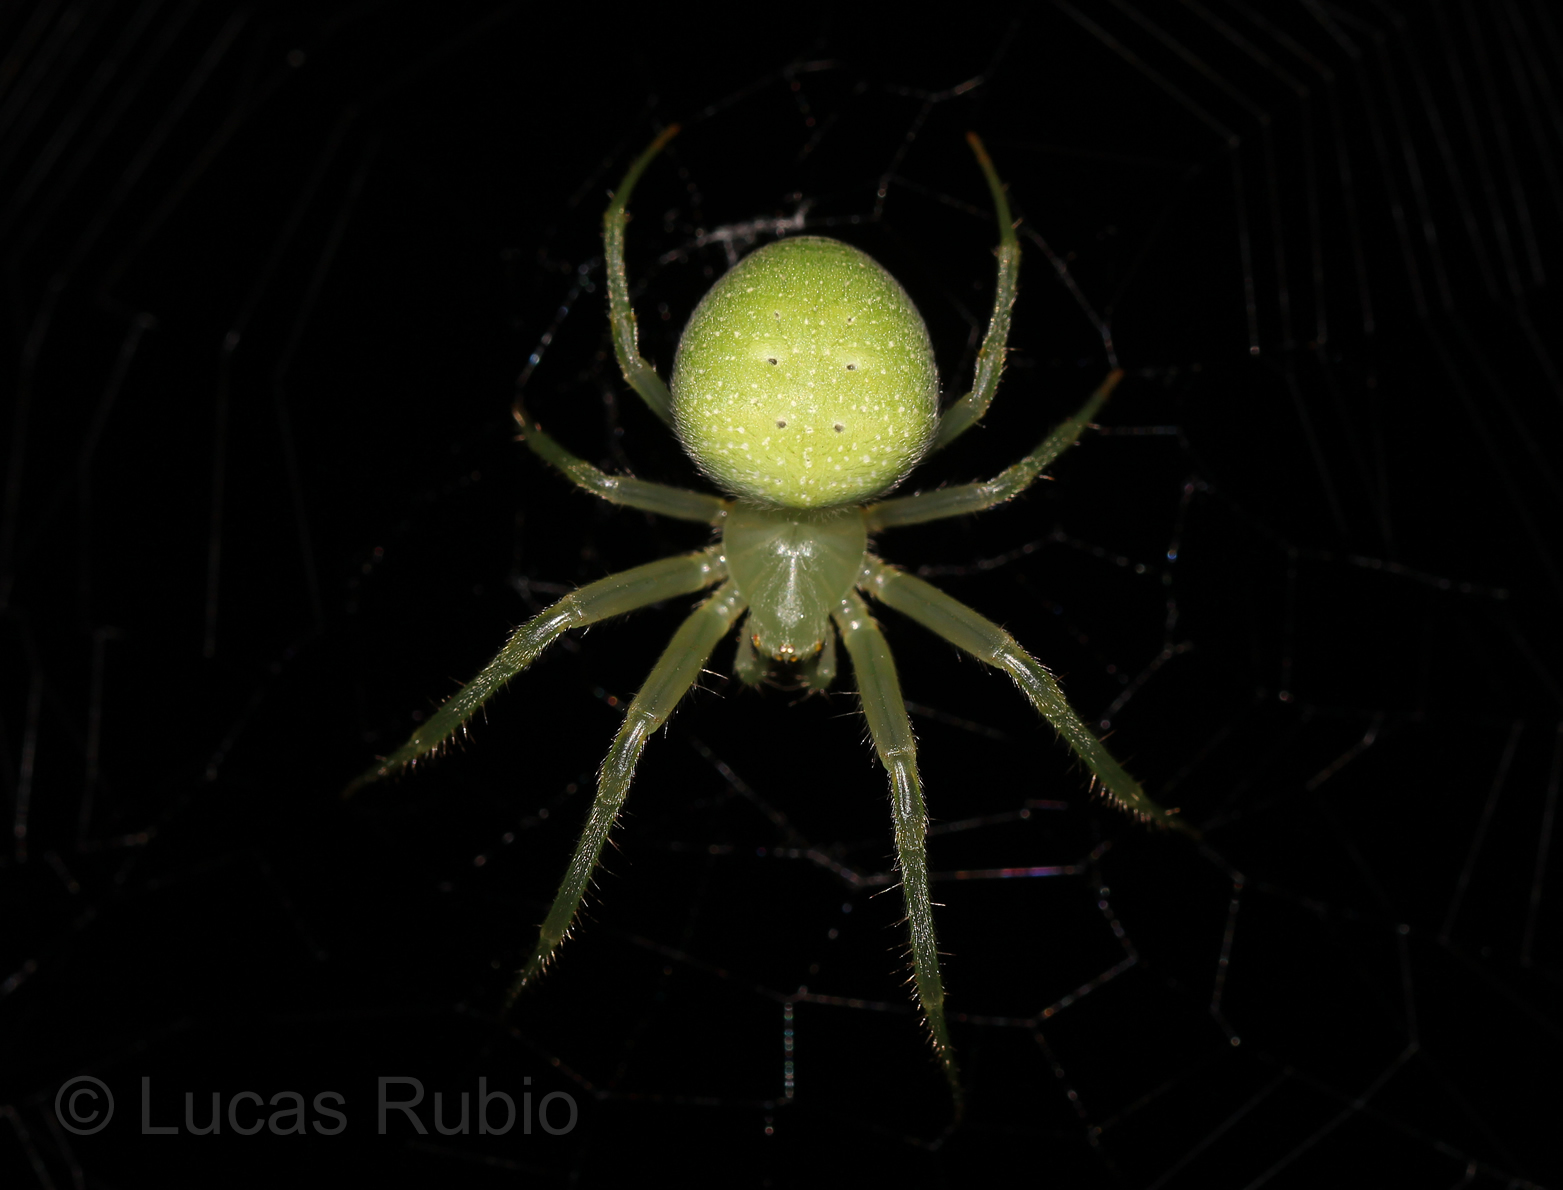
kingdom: Animalia
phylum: Arthropoda
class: Arachnida
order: Araneae
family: Araneidae
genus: Araneus
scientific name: Araneus uniformis
